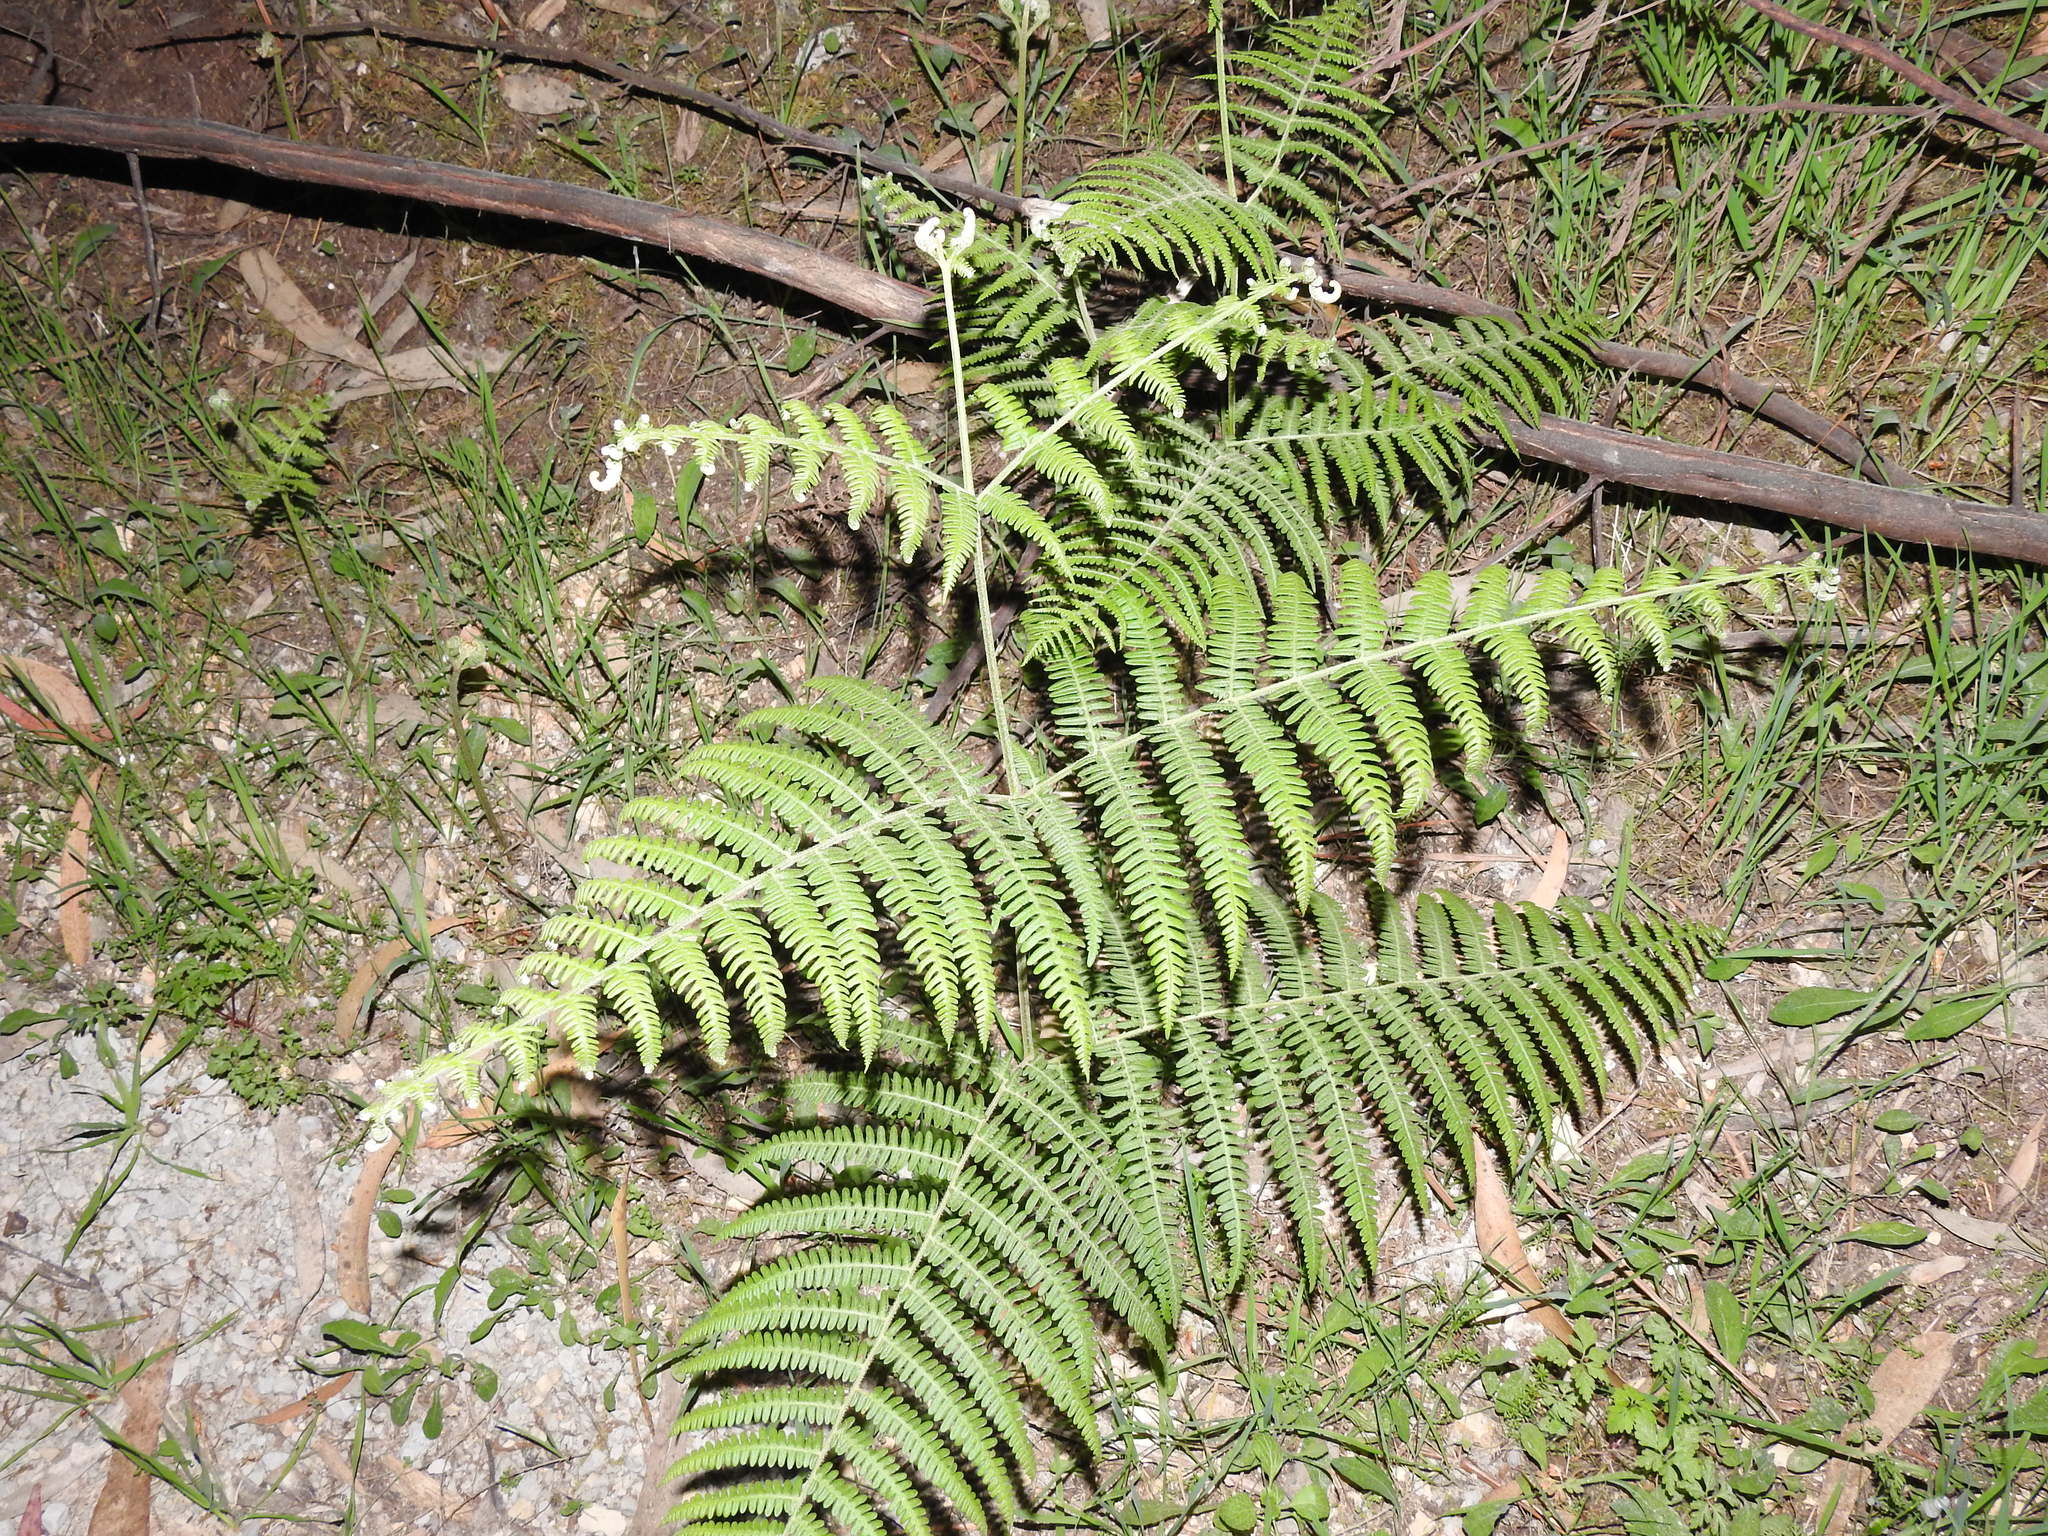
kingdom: Plantae
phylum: Tracheophyta
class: Polypodiopsida
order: Polypodiales
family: Dennstaedtiaceae
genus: Pteridium
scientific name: Pteridium aquilinum
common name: Bracken
